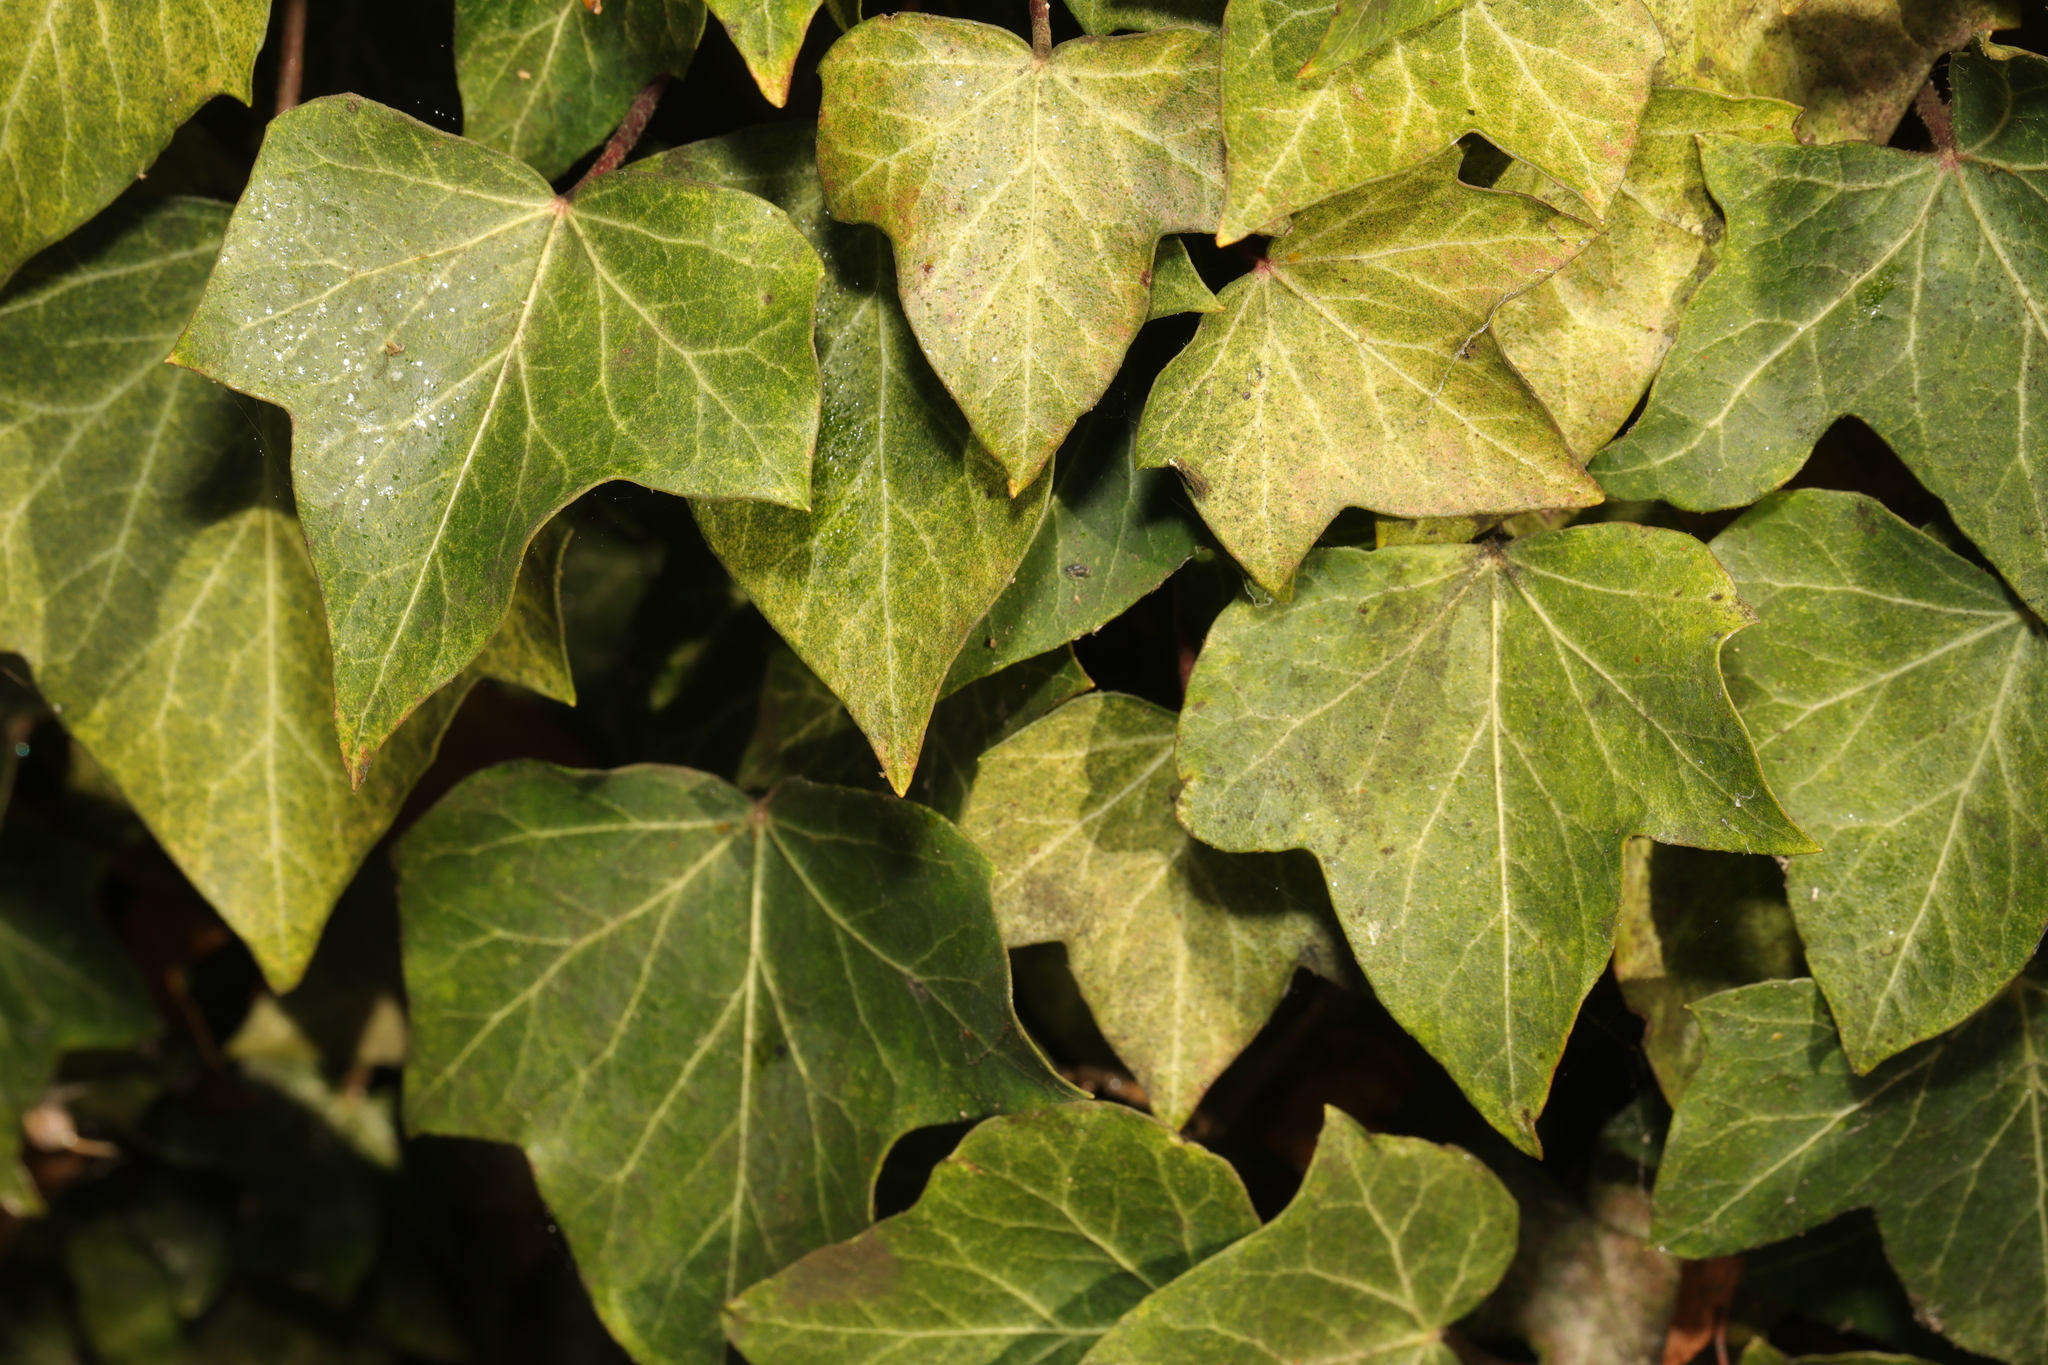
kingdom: Plantae
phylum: Tracheophyta
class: Magnoliopsida
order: Apiales
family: Araliaceae
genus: Hedera
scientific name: Hedera helix
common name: Ivy
